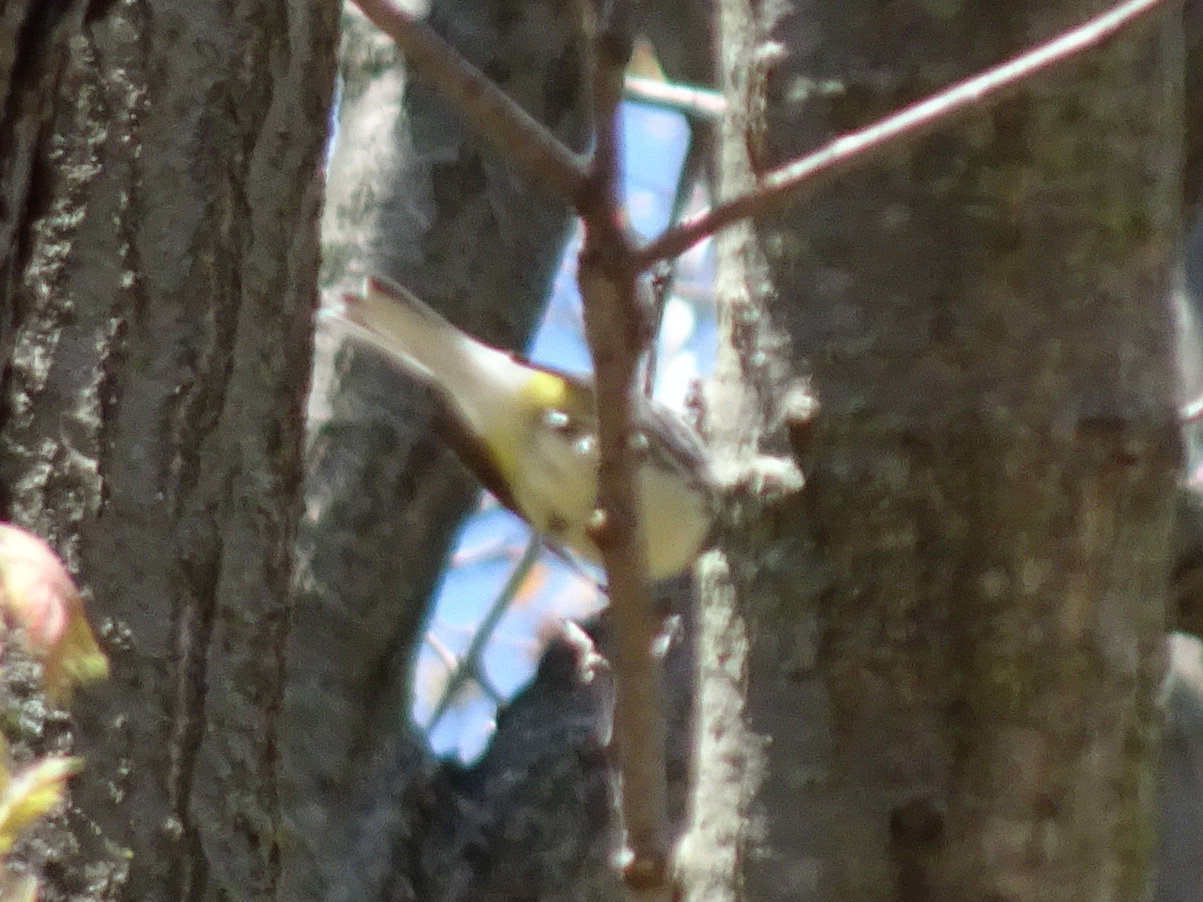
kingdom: Animalia
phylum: Chordata
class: Aves
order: Passeriformes
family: Parulidae
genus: Setophaga
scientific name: Setophaga virens
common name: Black-throated green warbler
